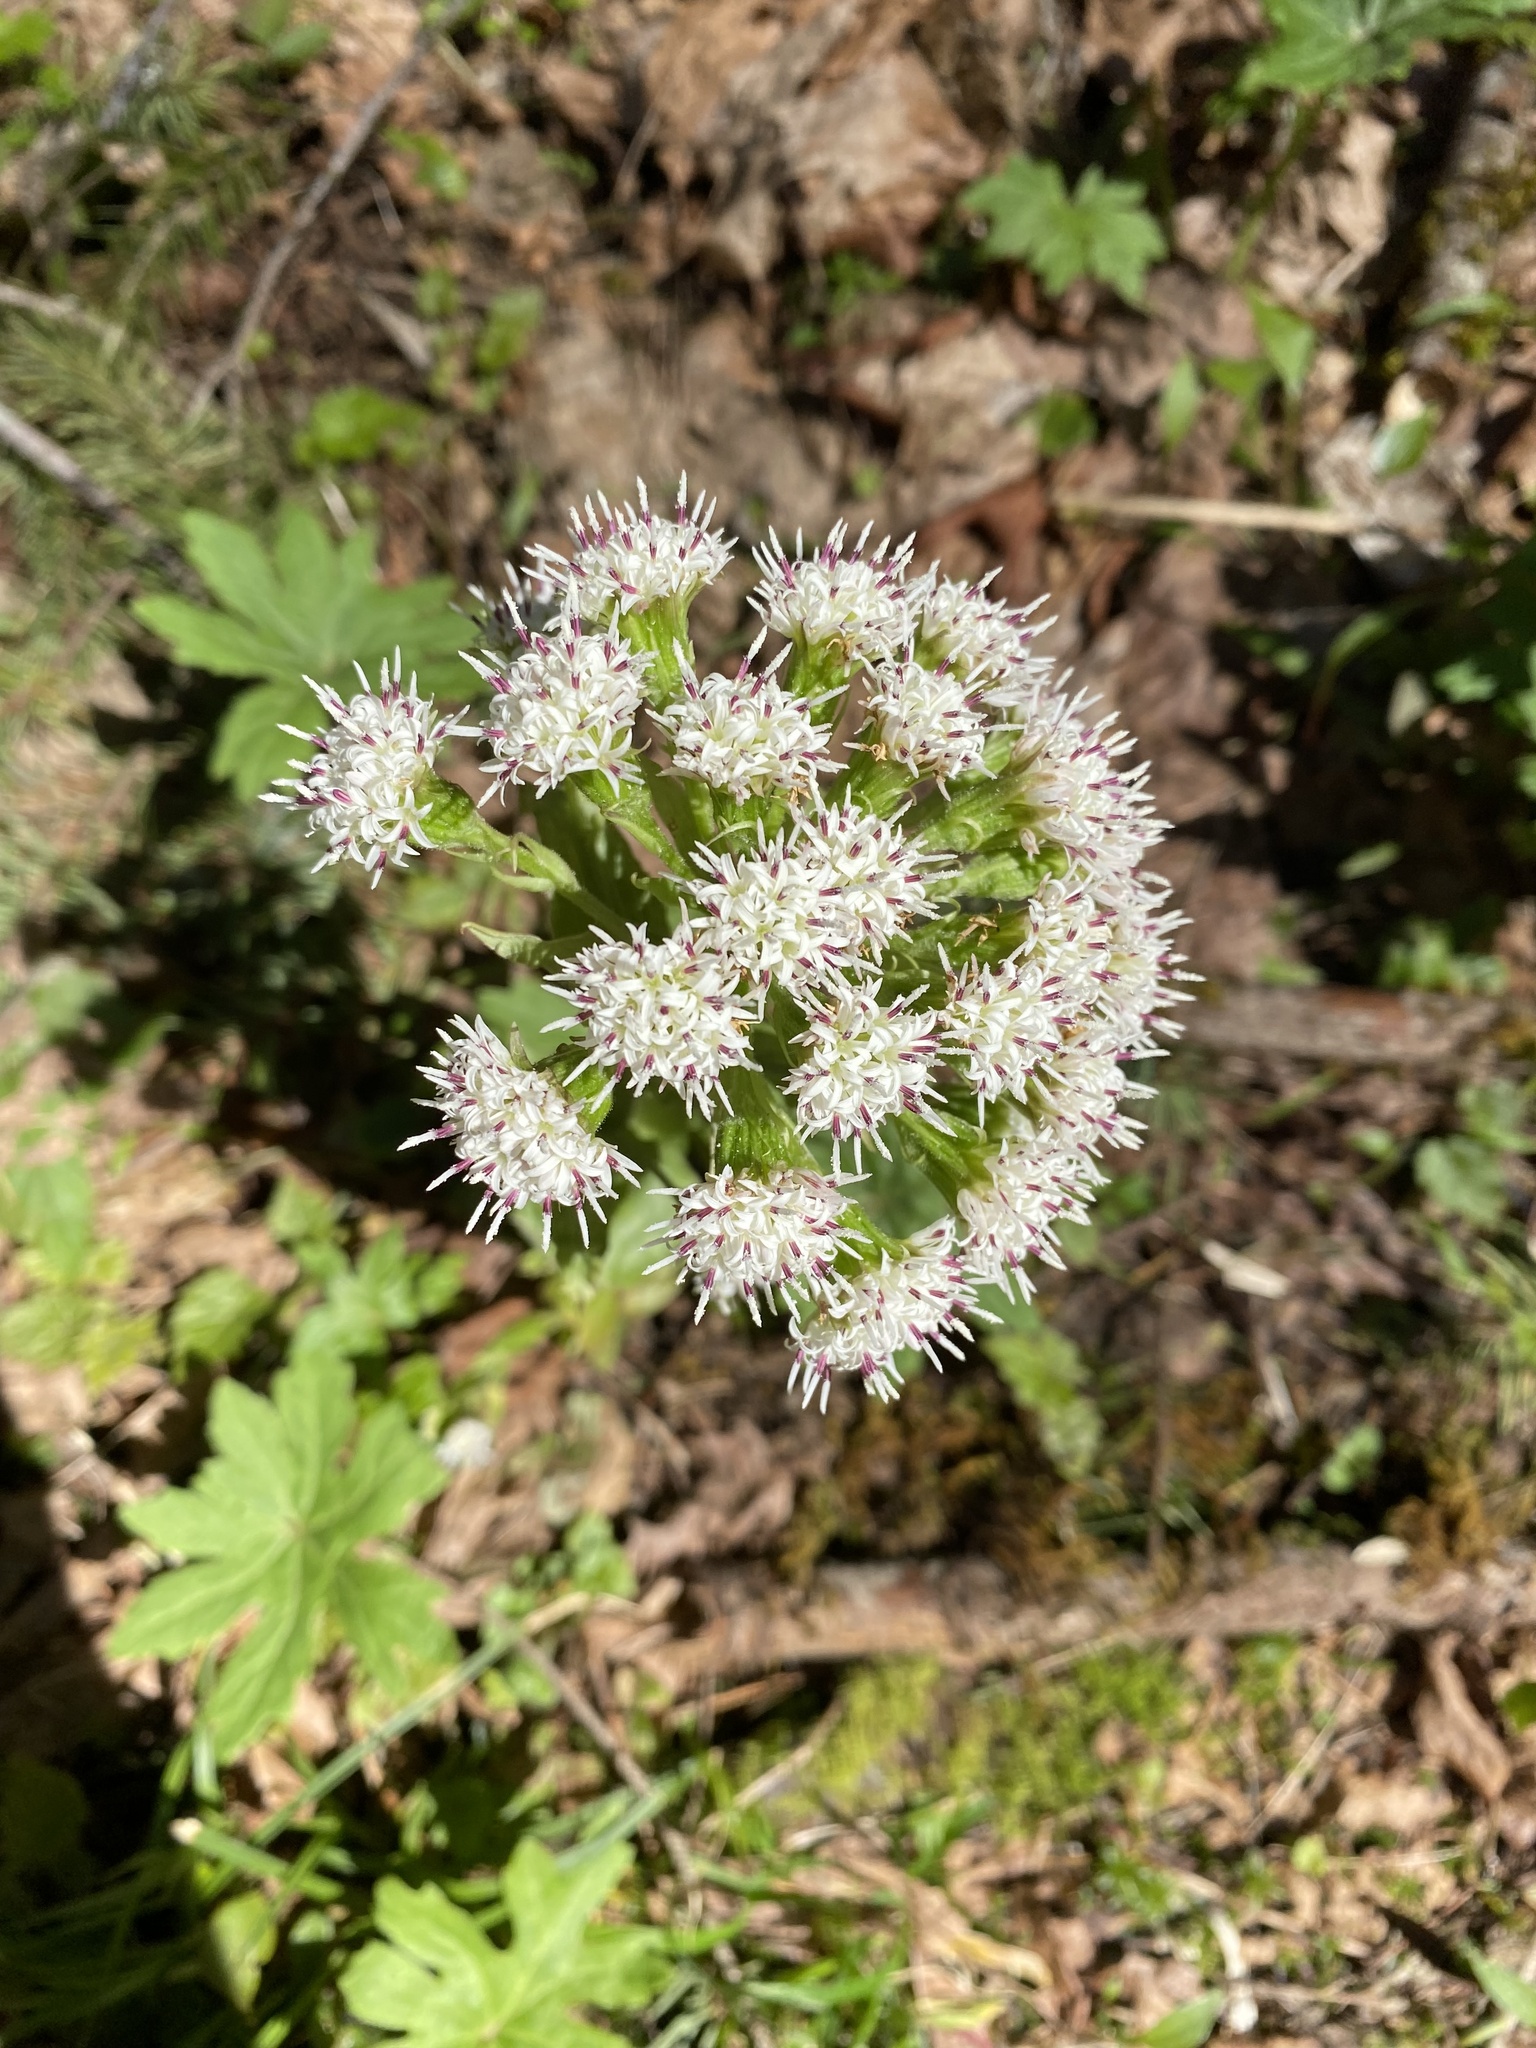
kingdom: Plantae
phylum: Tracheophyta
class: Magnoliopsida
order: Asterales
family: Asteraceae
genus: Petasites
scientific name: Petasites frigidus
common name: Arctic butterbur
